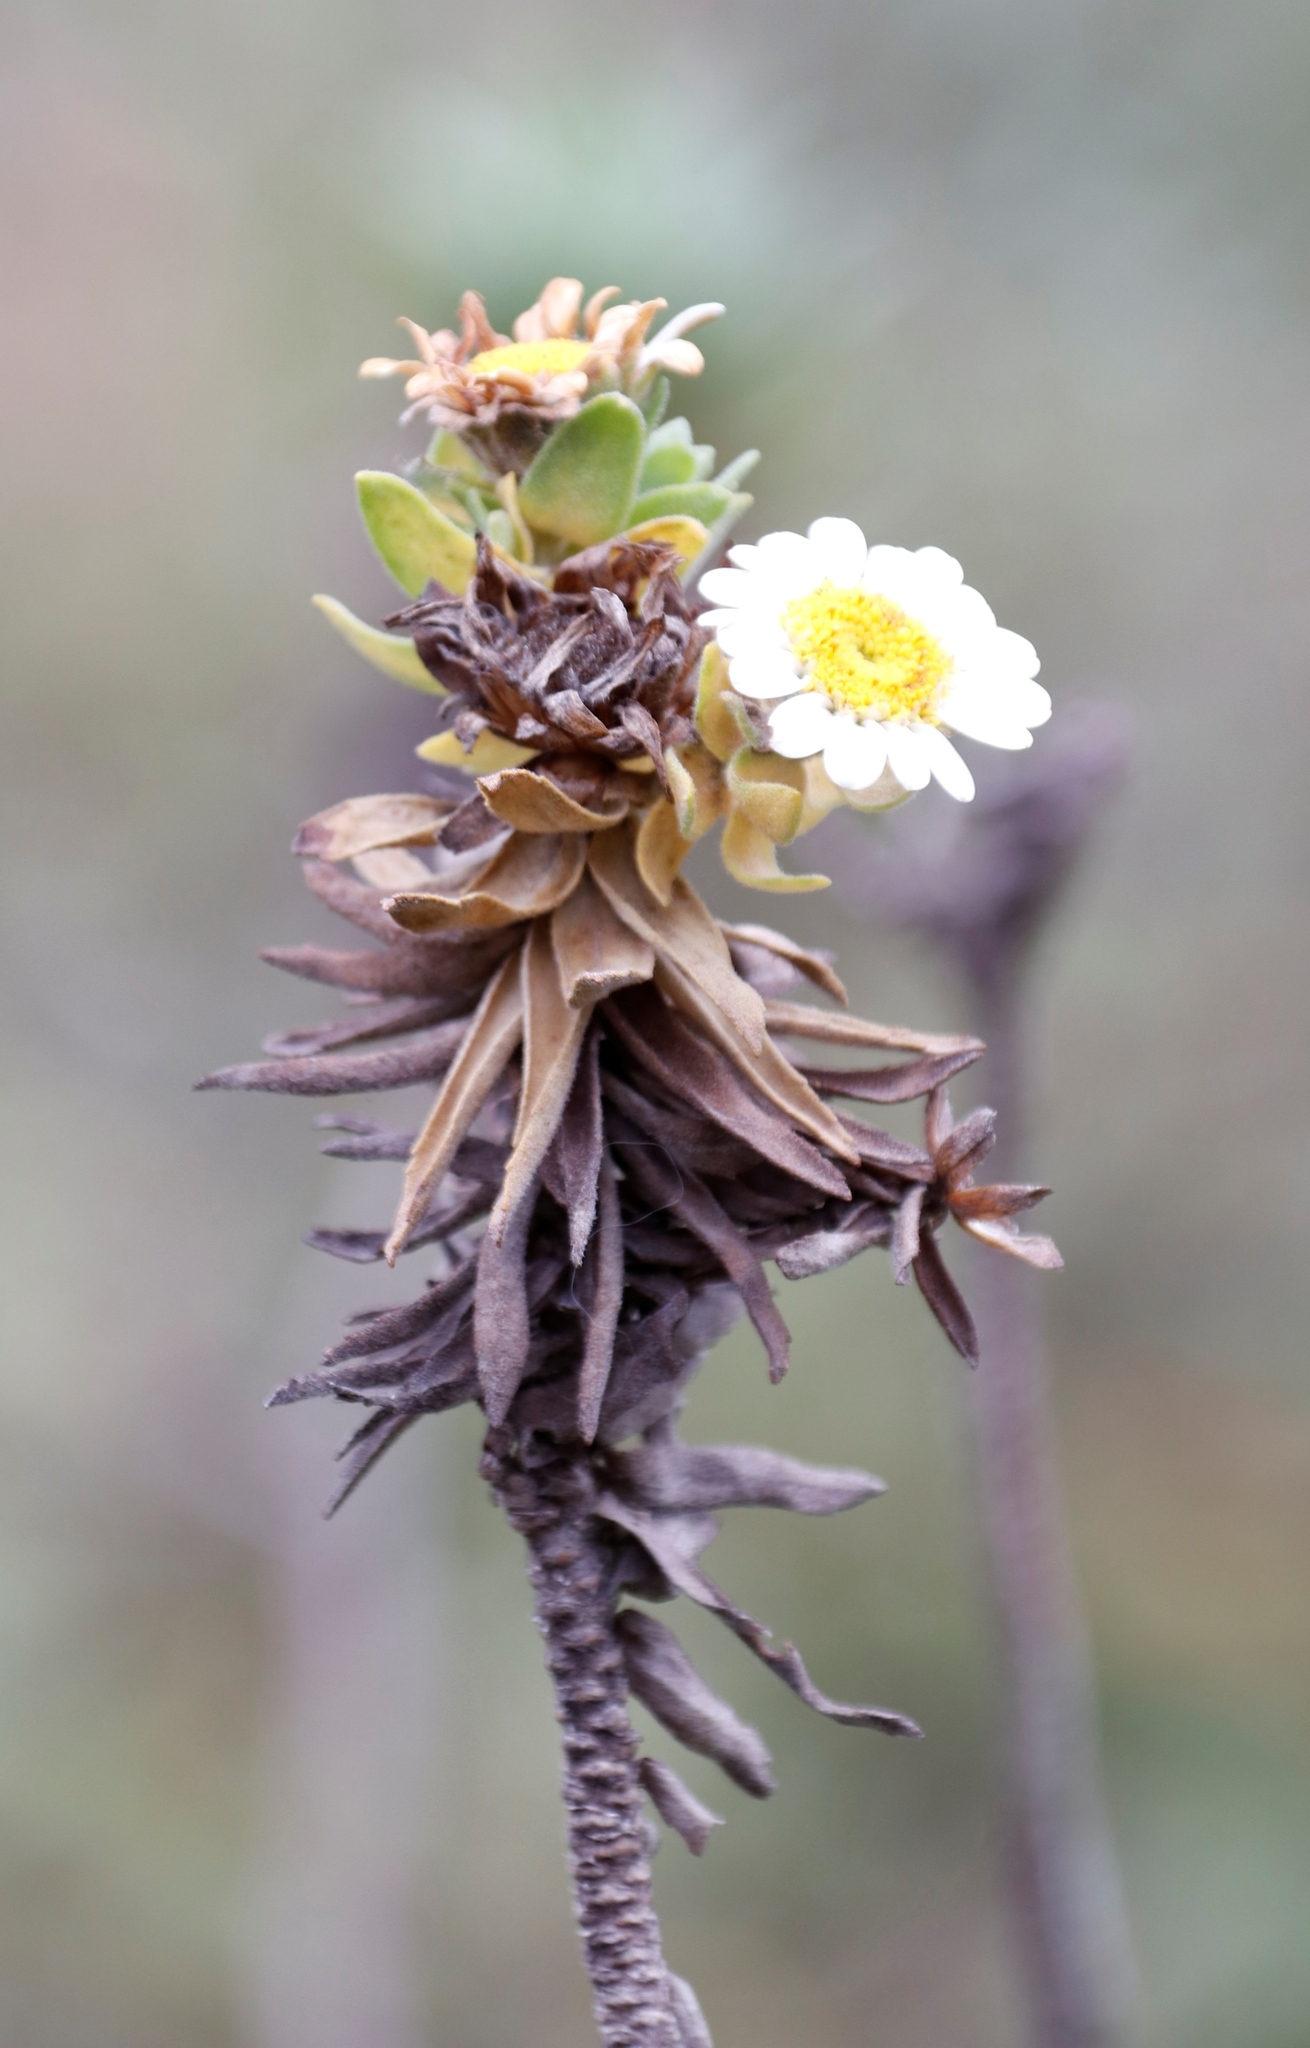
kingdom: Plantae
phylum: Tracheophyta
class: Magnoliopsida
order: Asterales
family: Asteraceae
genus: Osmitopsis
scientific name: Osmitopsis asteriscoides
